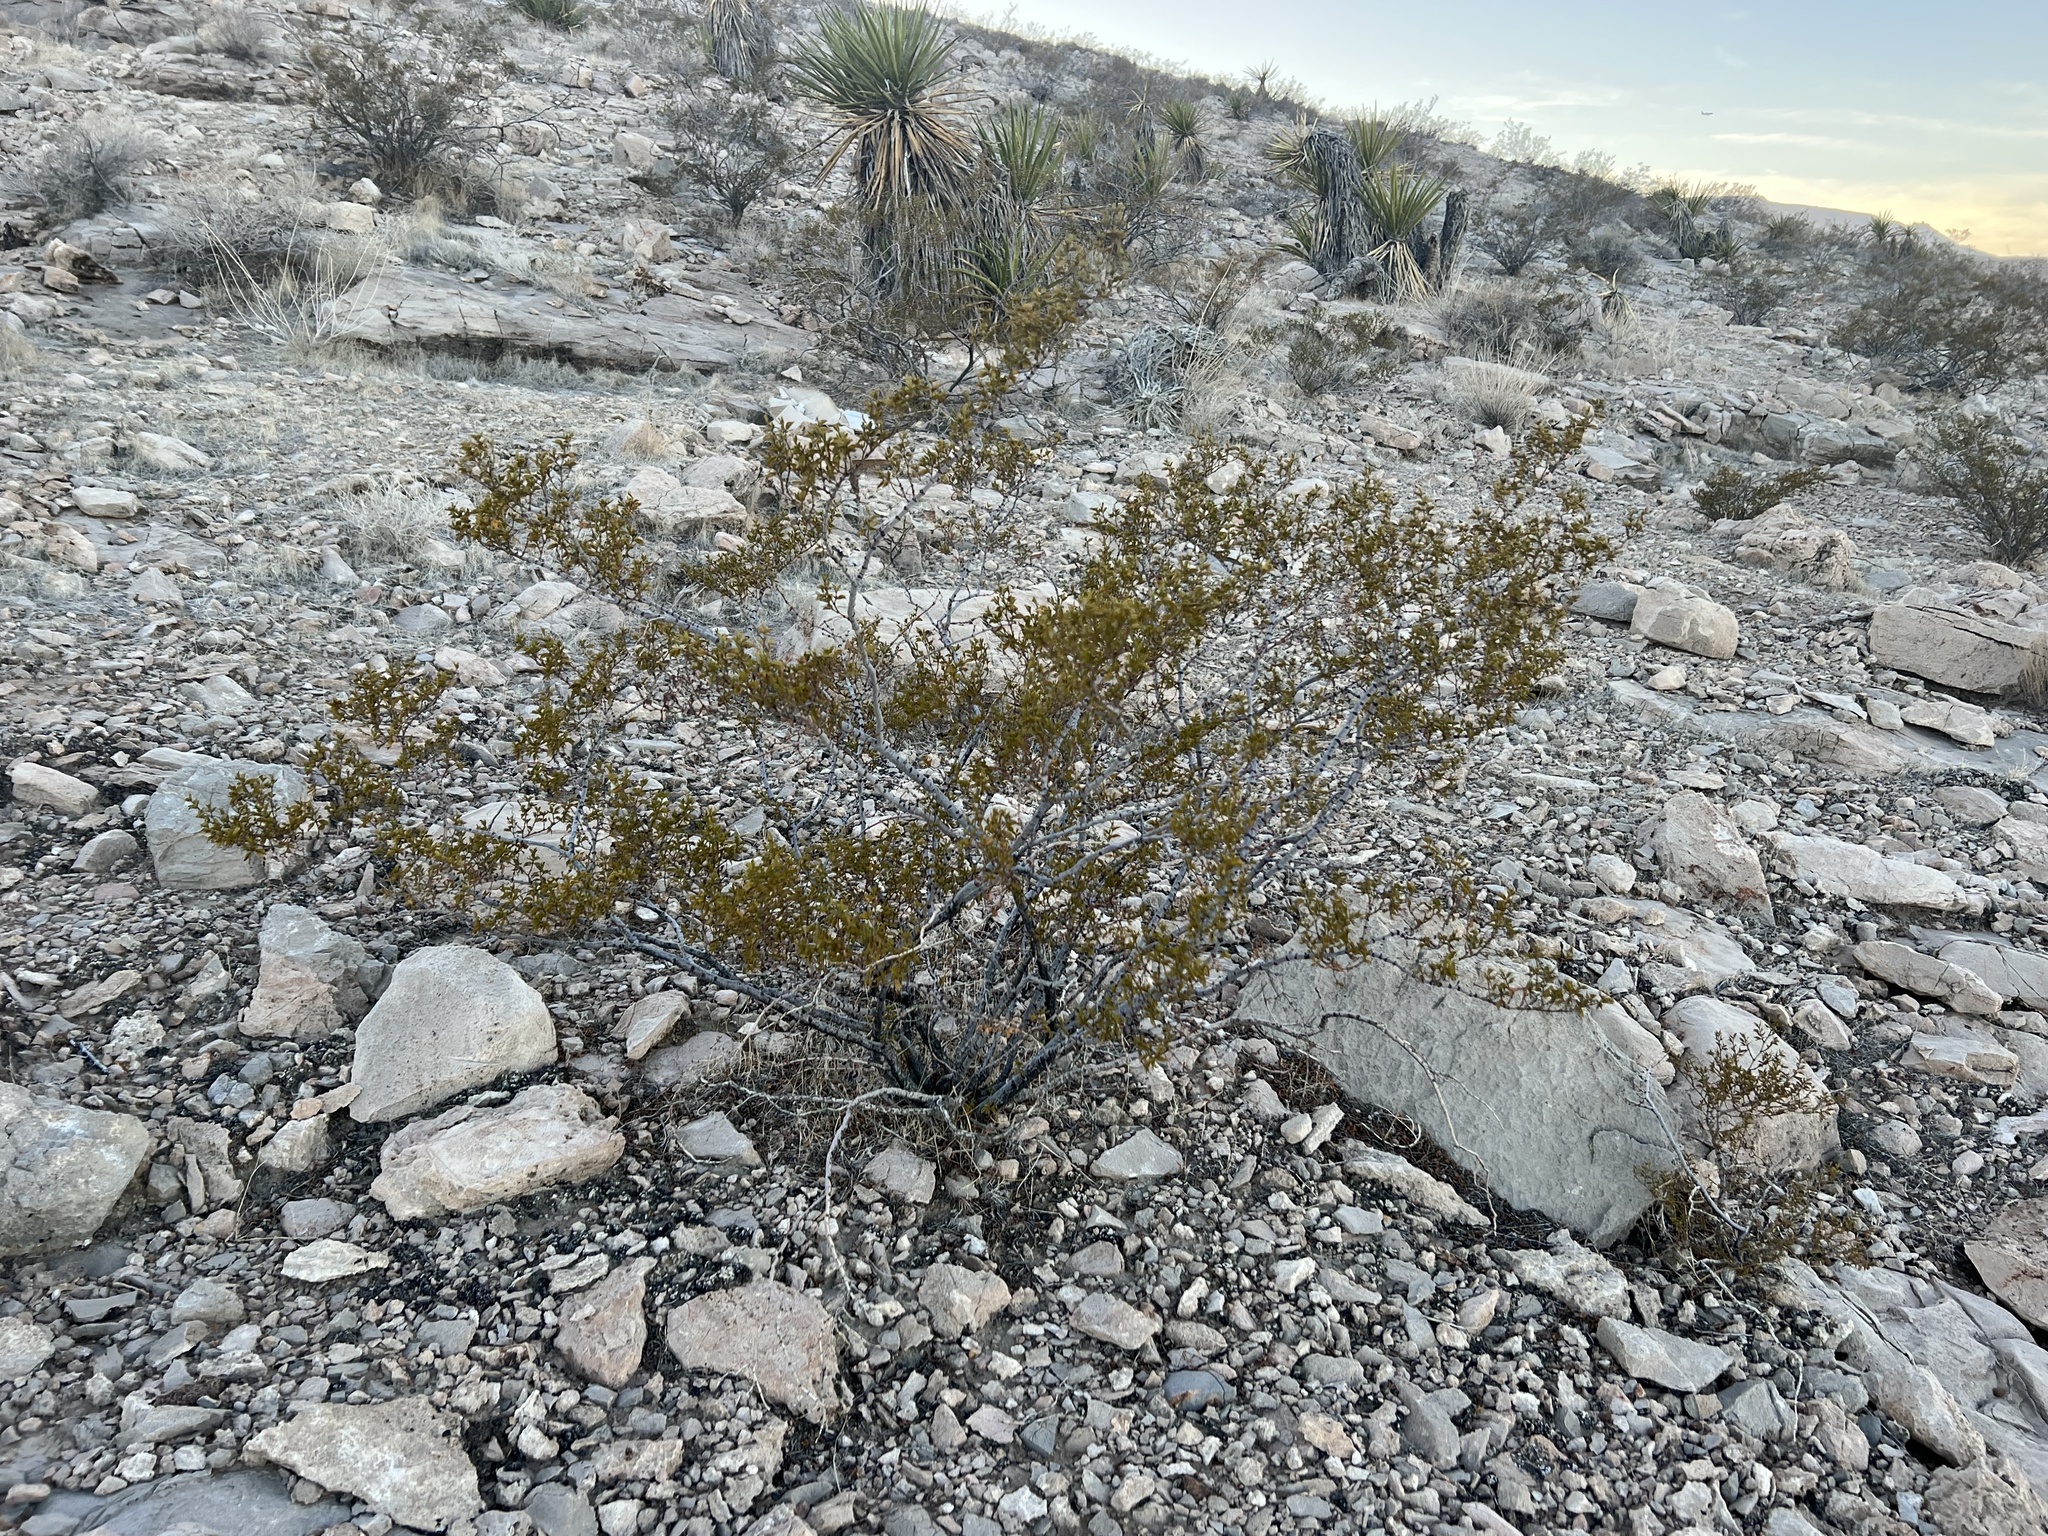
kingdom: Plantae
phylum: Tracheophyta
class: Magnoliopsida
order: Zygophyllales
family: Zygophyllaceae
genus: Larrea
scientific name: Larrea tridentata
